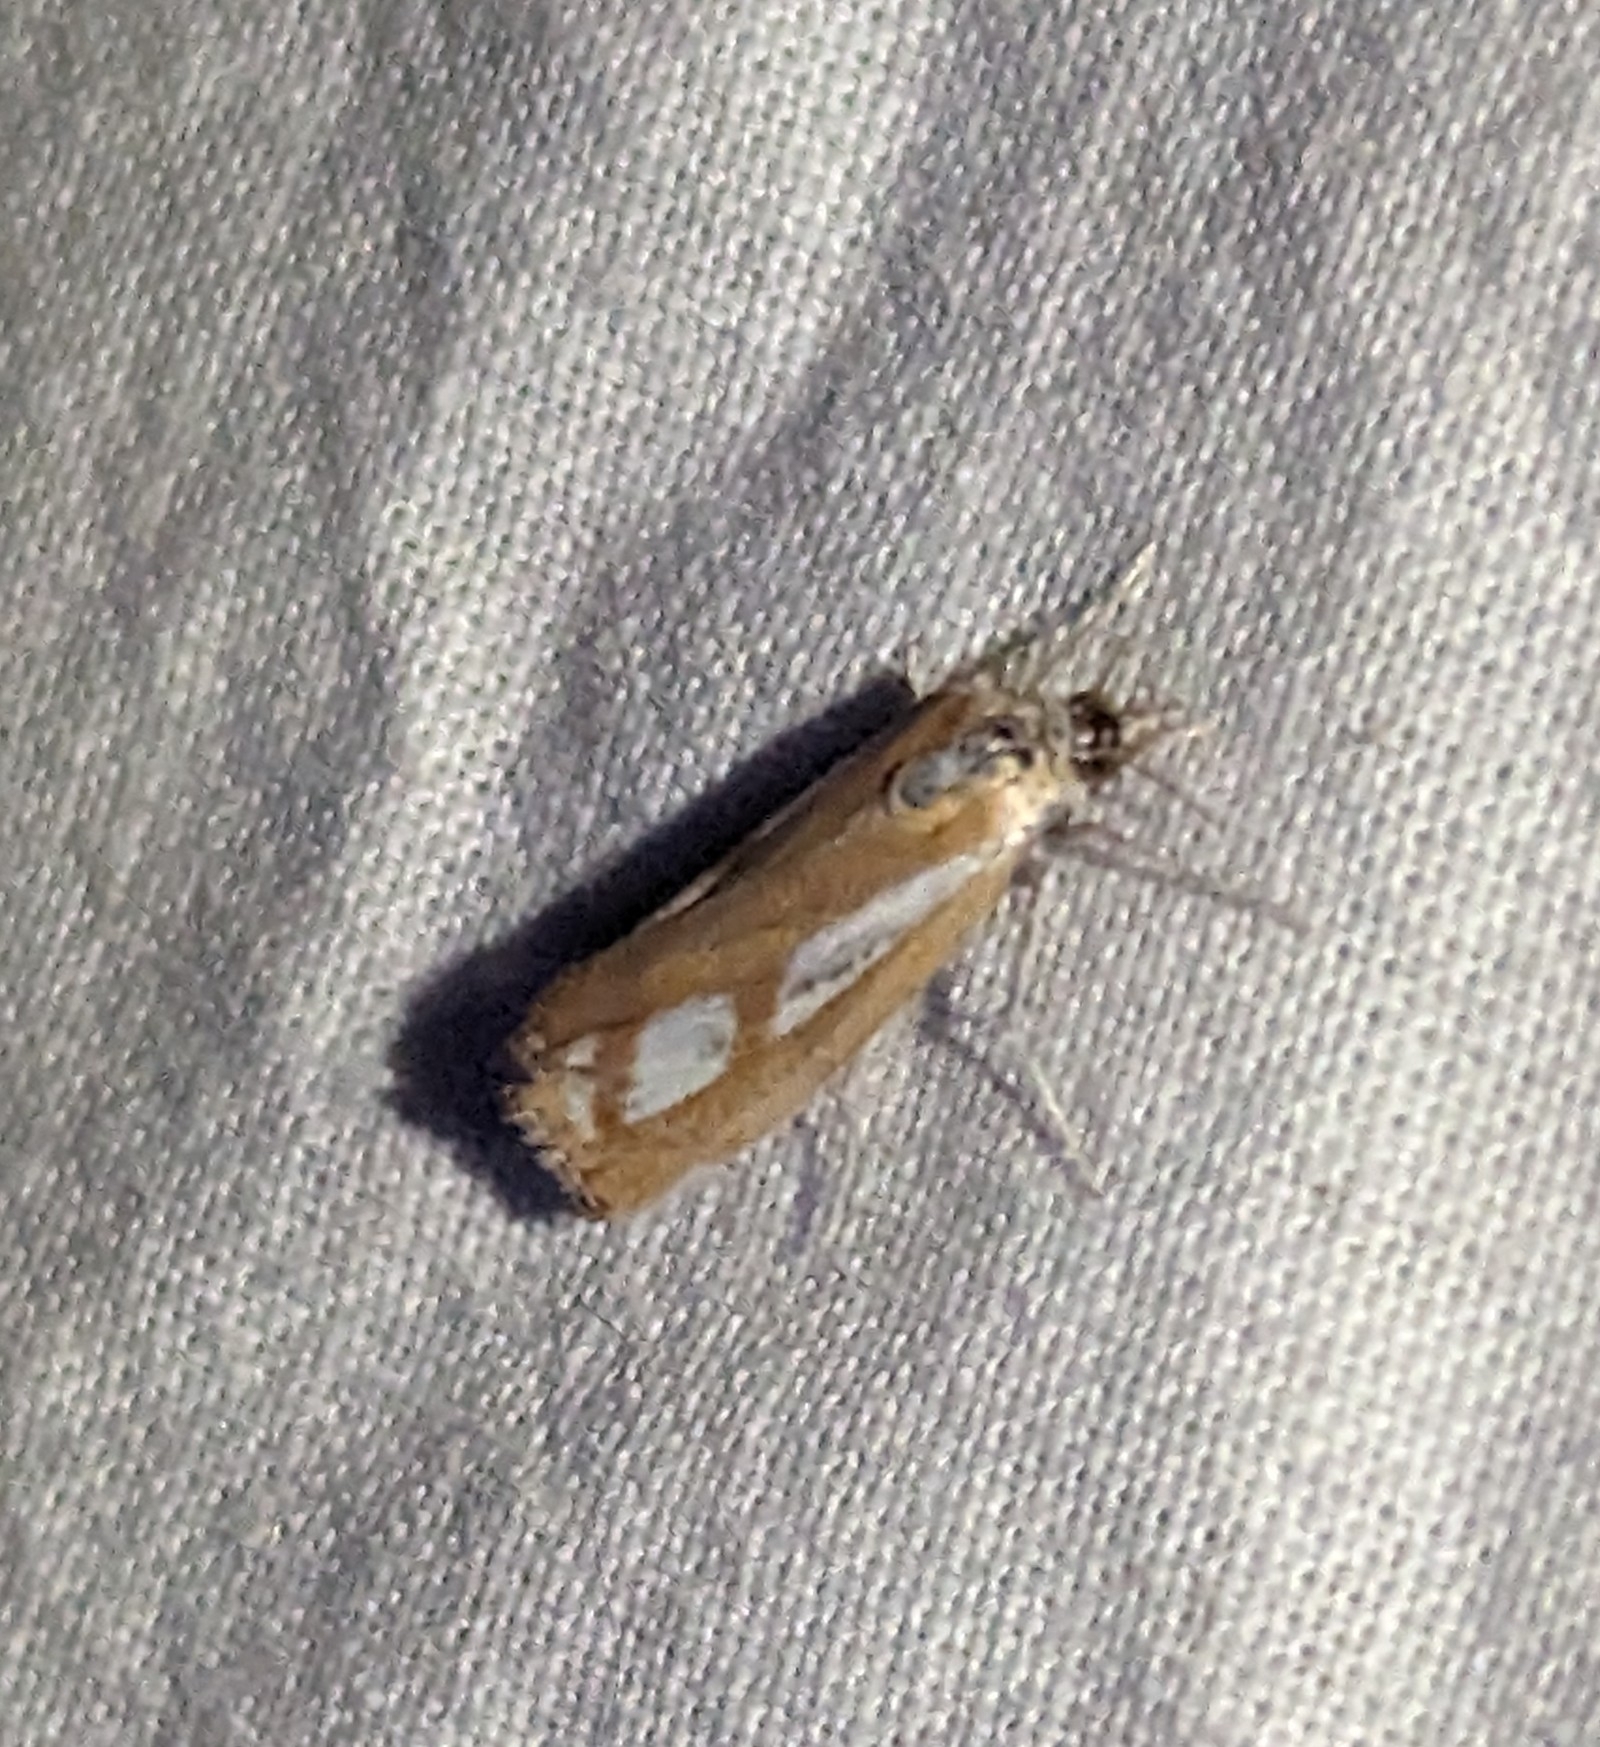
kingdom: Animalia
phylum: Arthropoda
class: Insecta
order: Lepidoptera
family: Crambidae
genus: Catoptria
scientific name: Catoptria latiradiellus
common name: Two-banded catoptria moth
